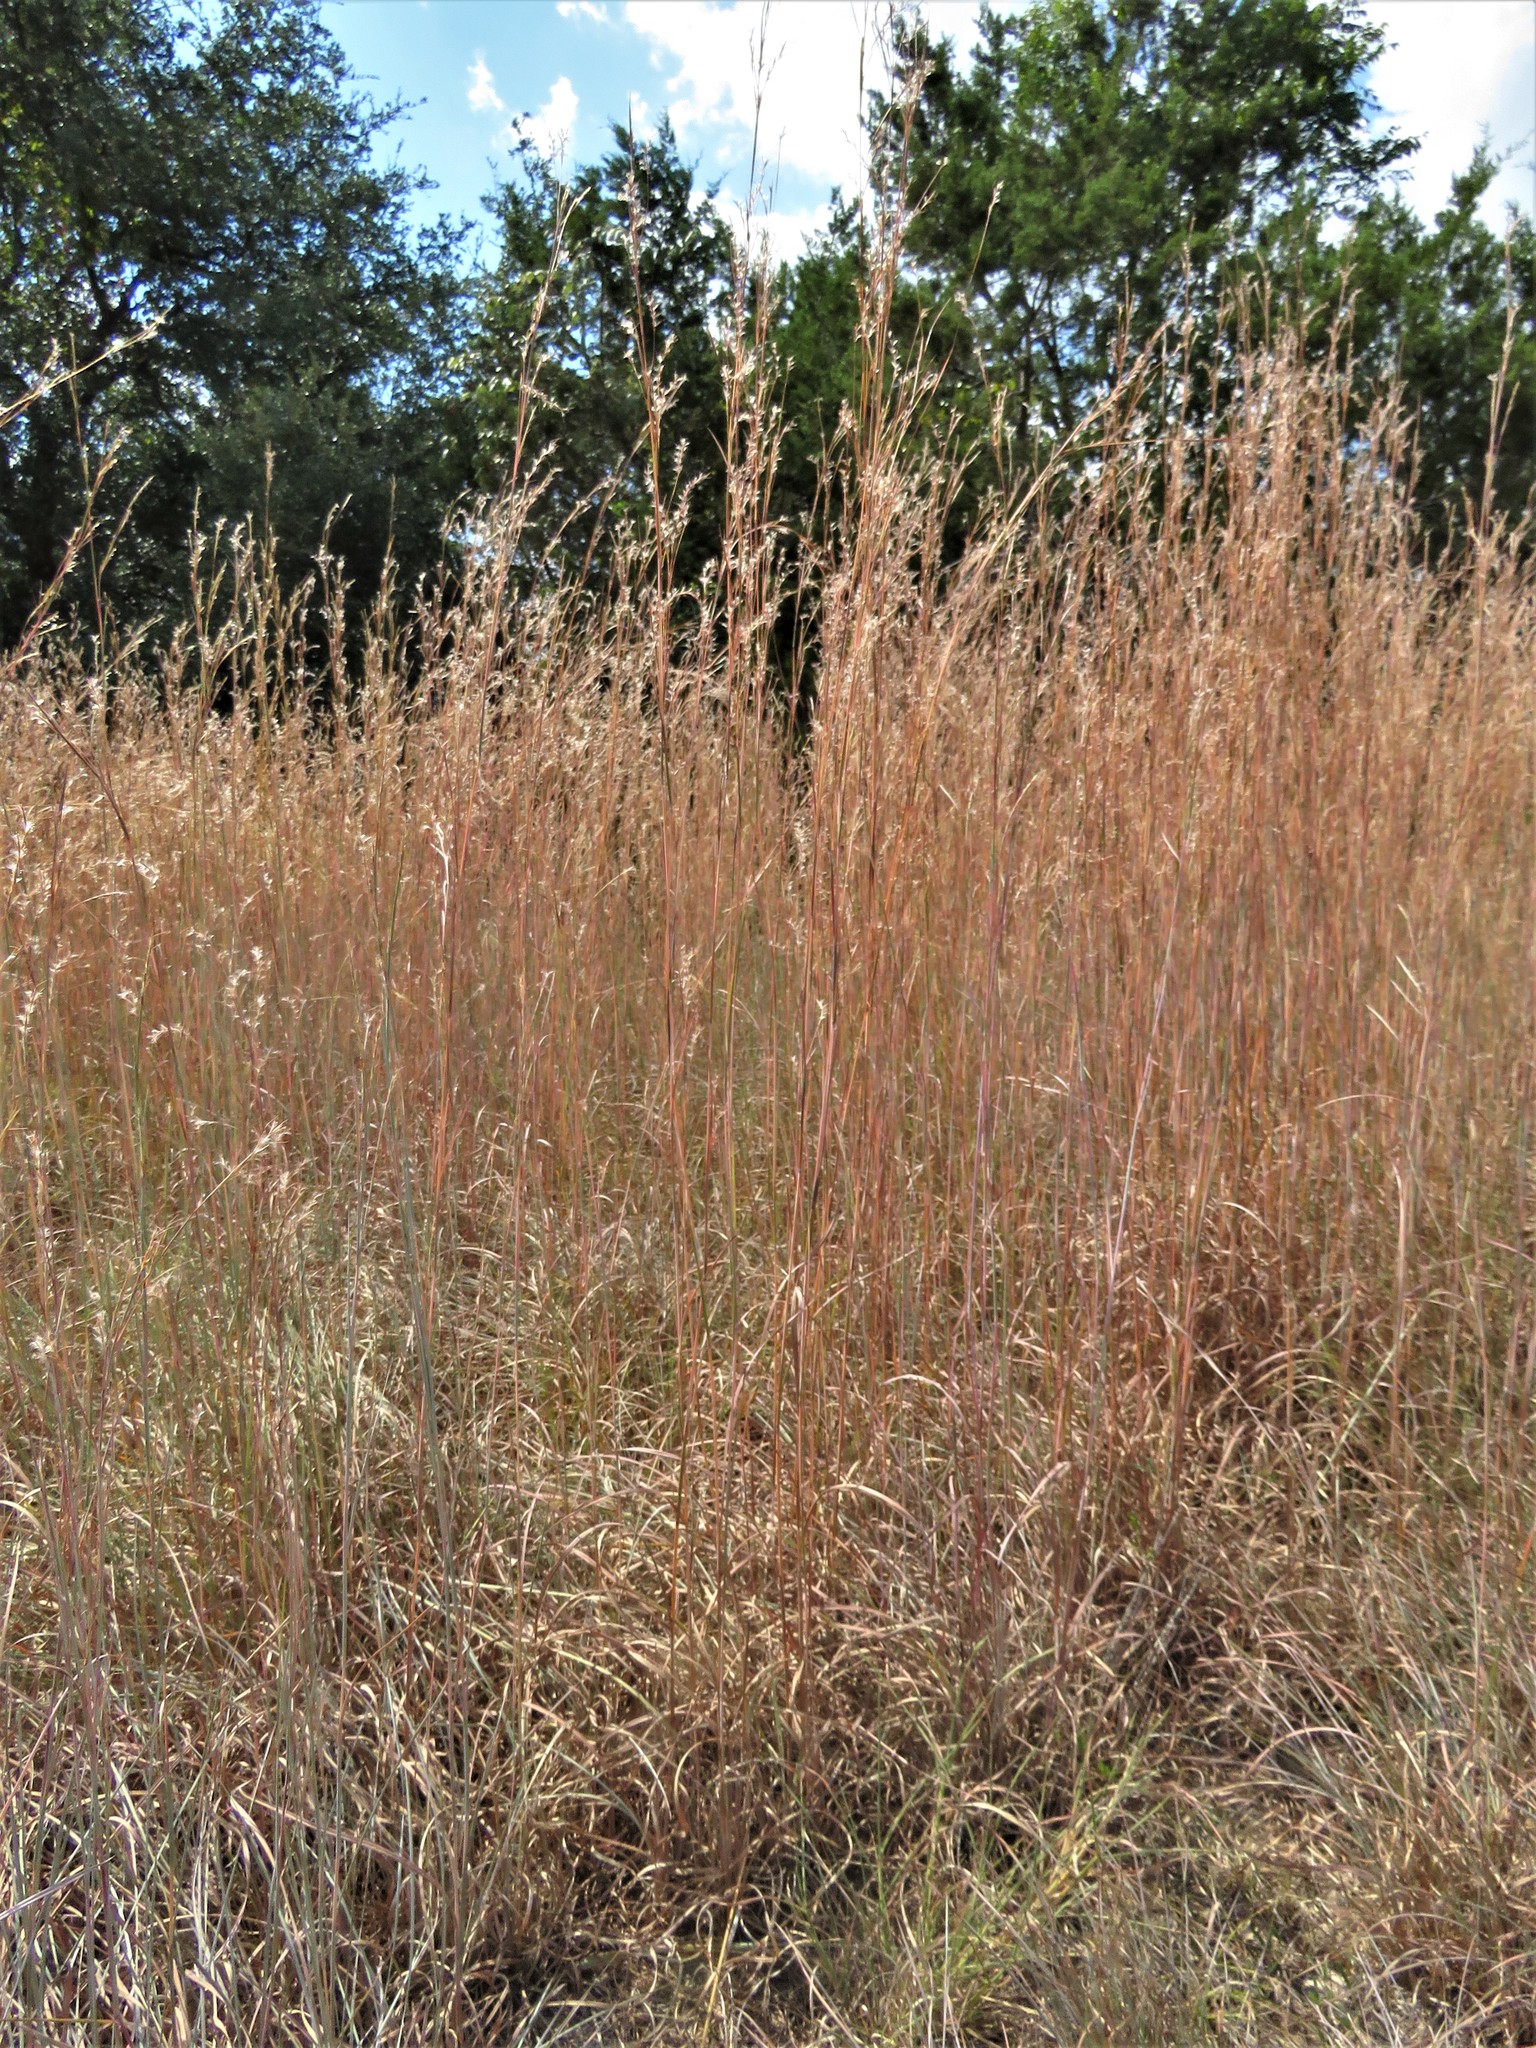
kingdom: Plantae
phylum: Tracheophyta
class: Liliopsida
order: Poales
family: Poaceae
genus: Schizachyrium
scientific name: Schizachyrium scoparium
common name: Little bluestem
